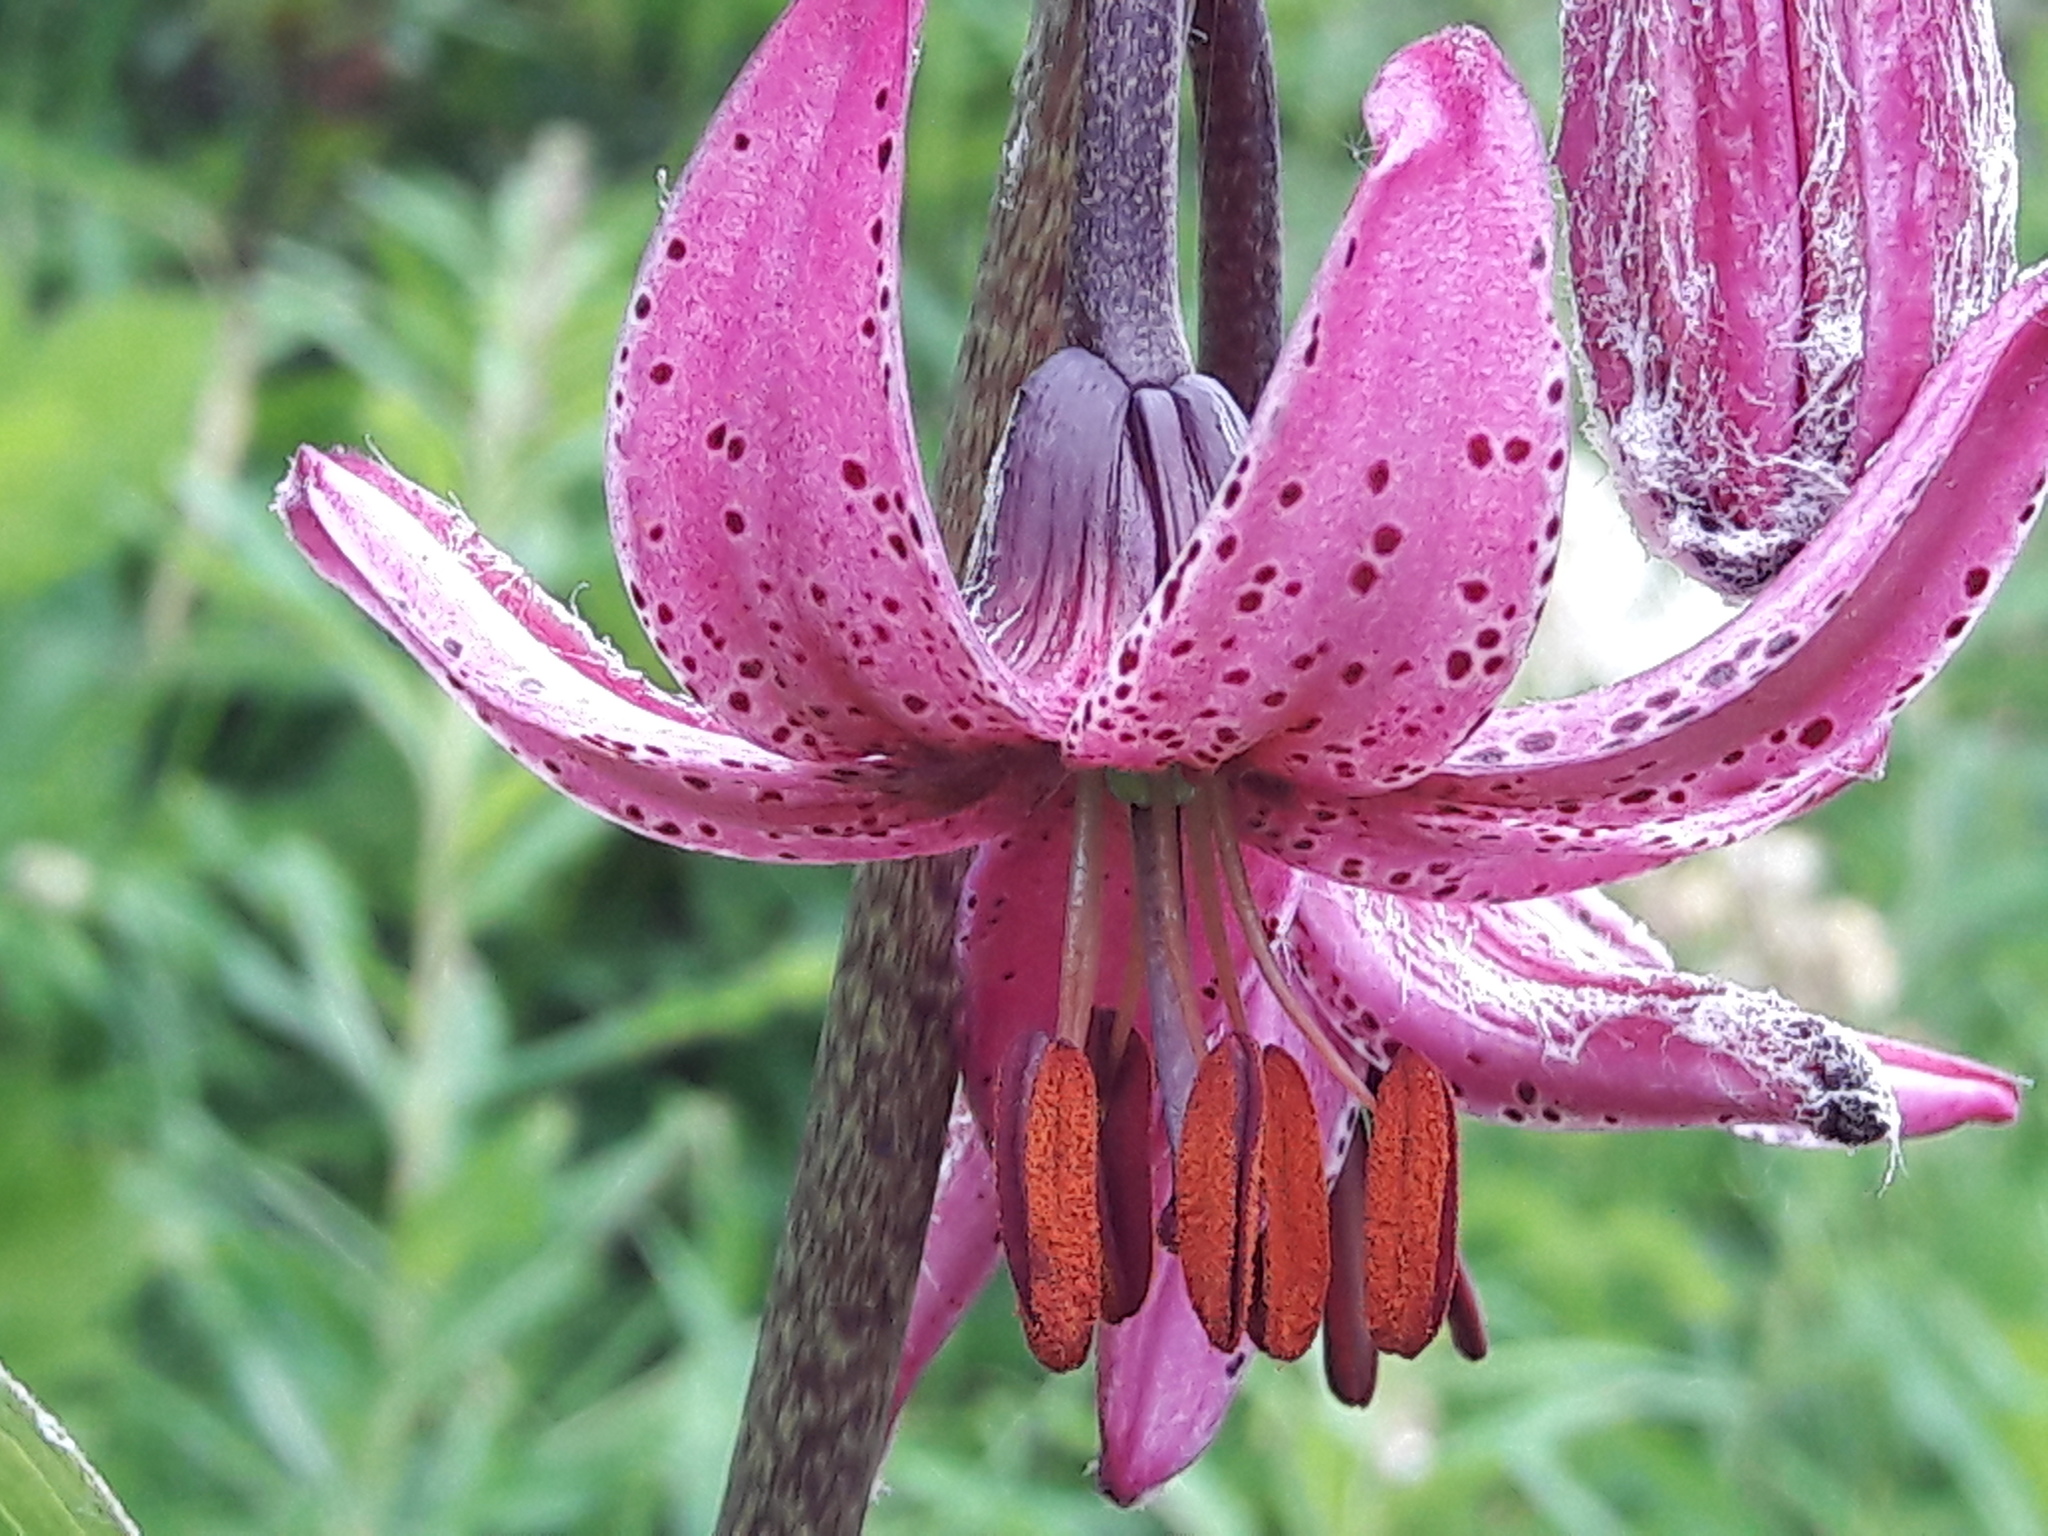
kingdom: Plantae
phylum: Tracheophyta
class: Liliopsida
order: Liliales
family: Liliaceae
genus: Lilium
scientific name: Lilium martagon
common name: Martagon lily
